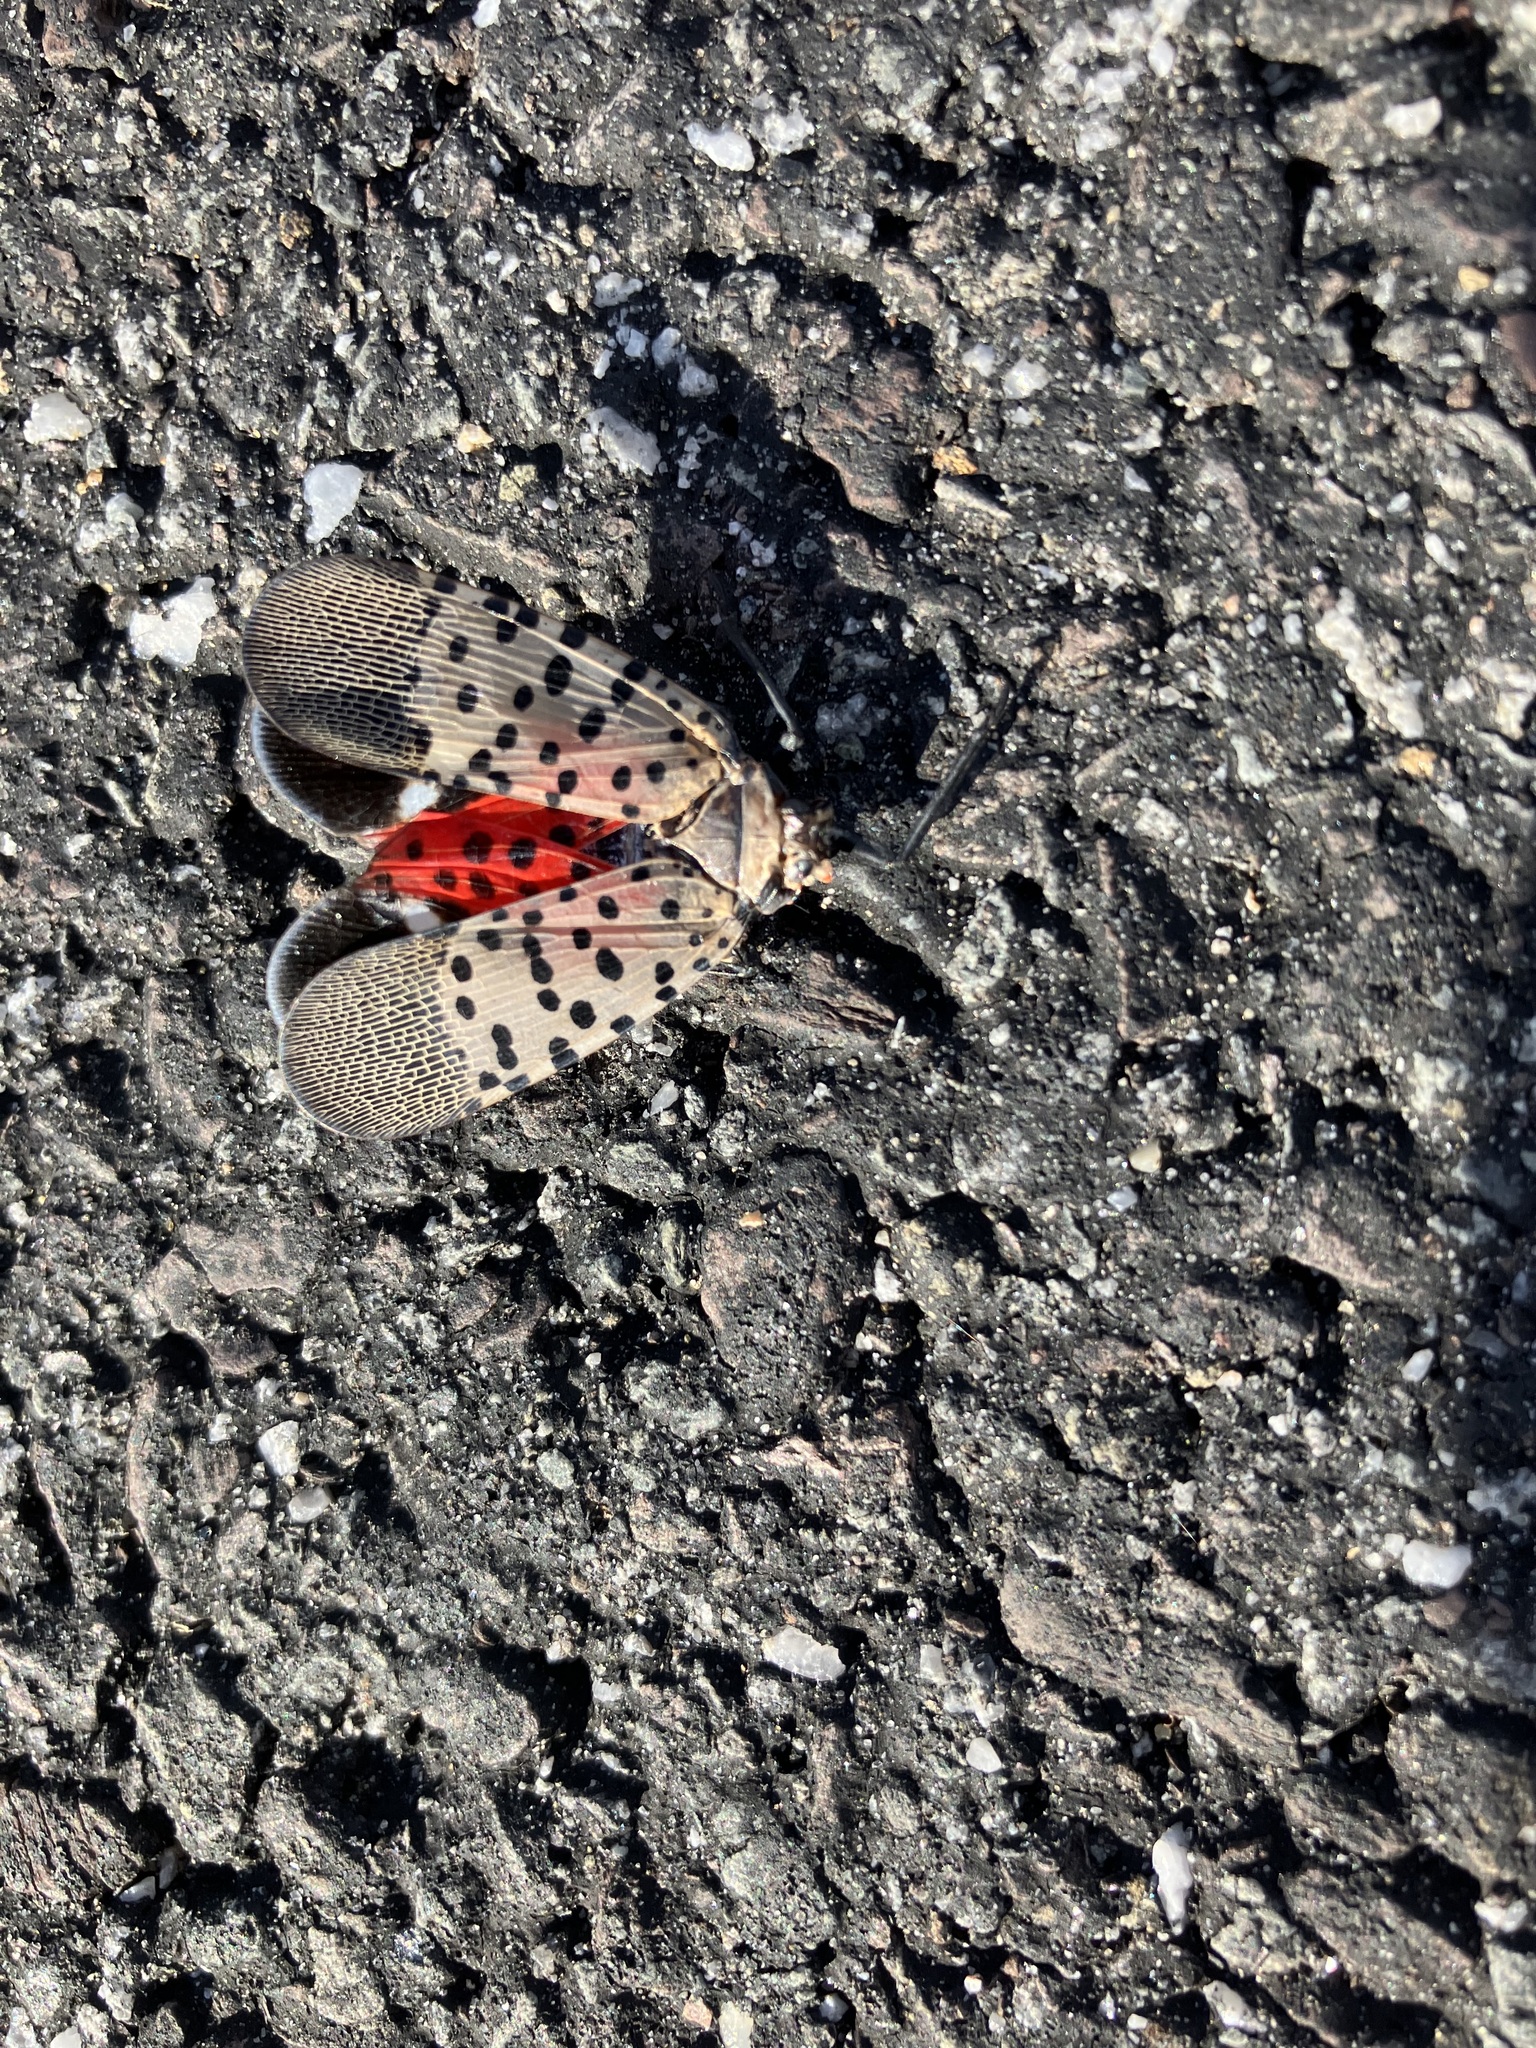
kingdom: Animalia
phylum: Arthropoda
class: Insecta
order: Hemiptera
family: Fulgoridae
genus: Lycorma
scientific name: Lycorma delicatula
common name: Spotted lanternfly
